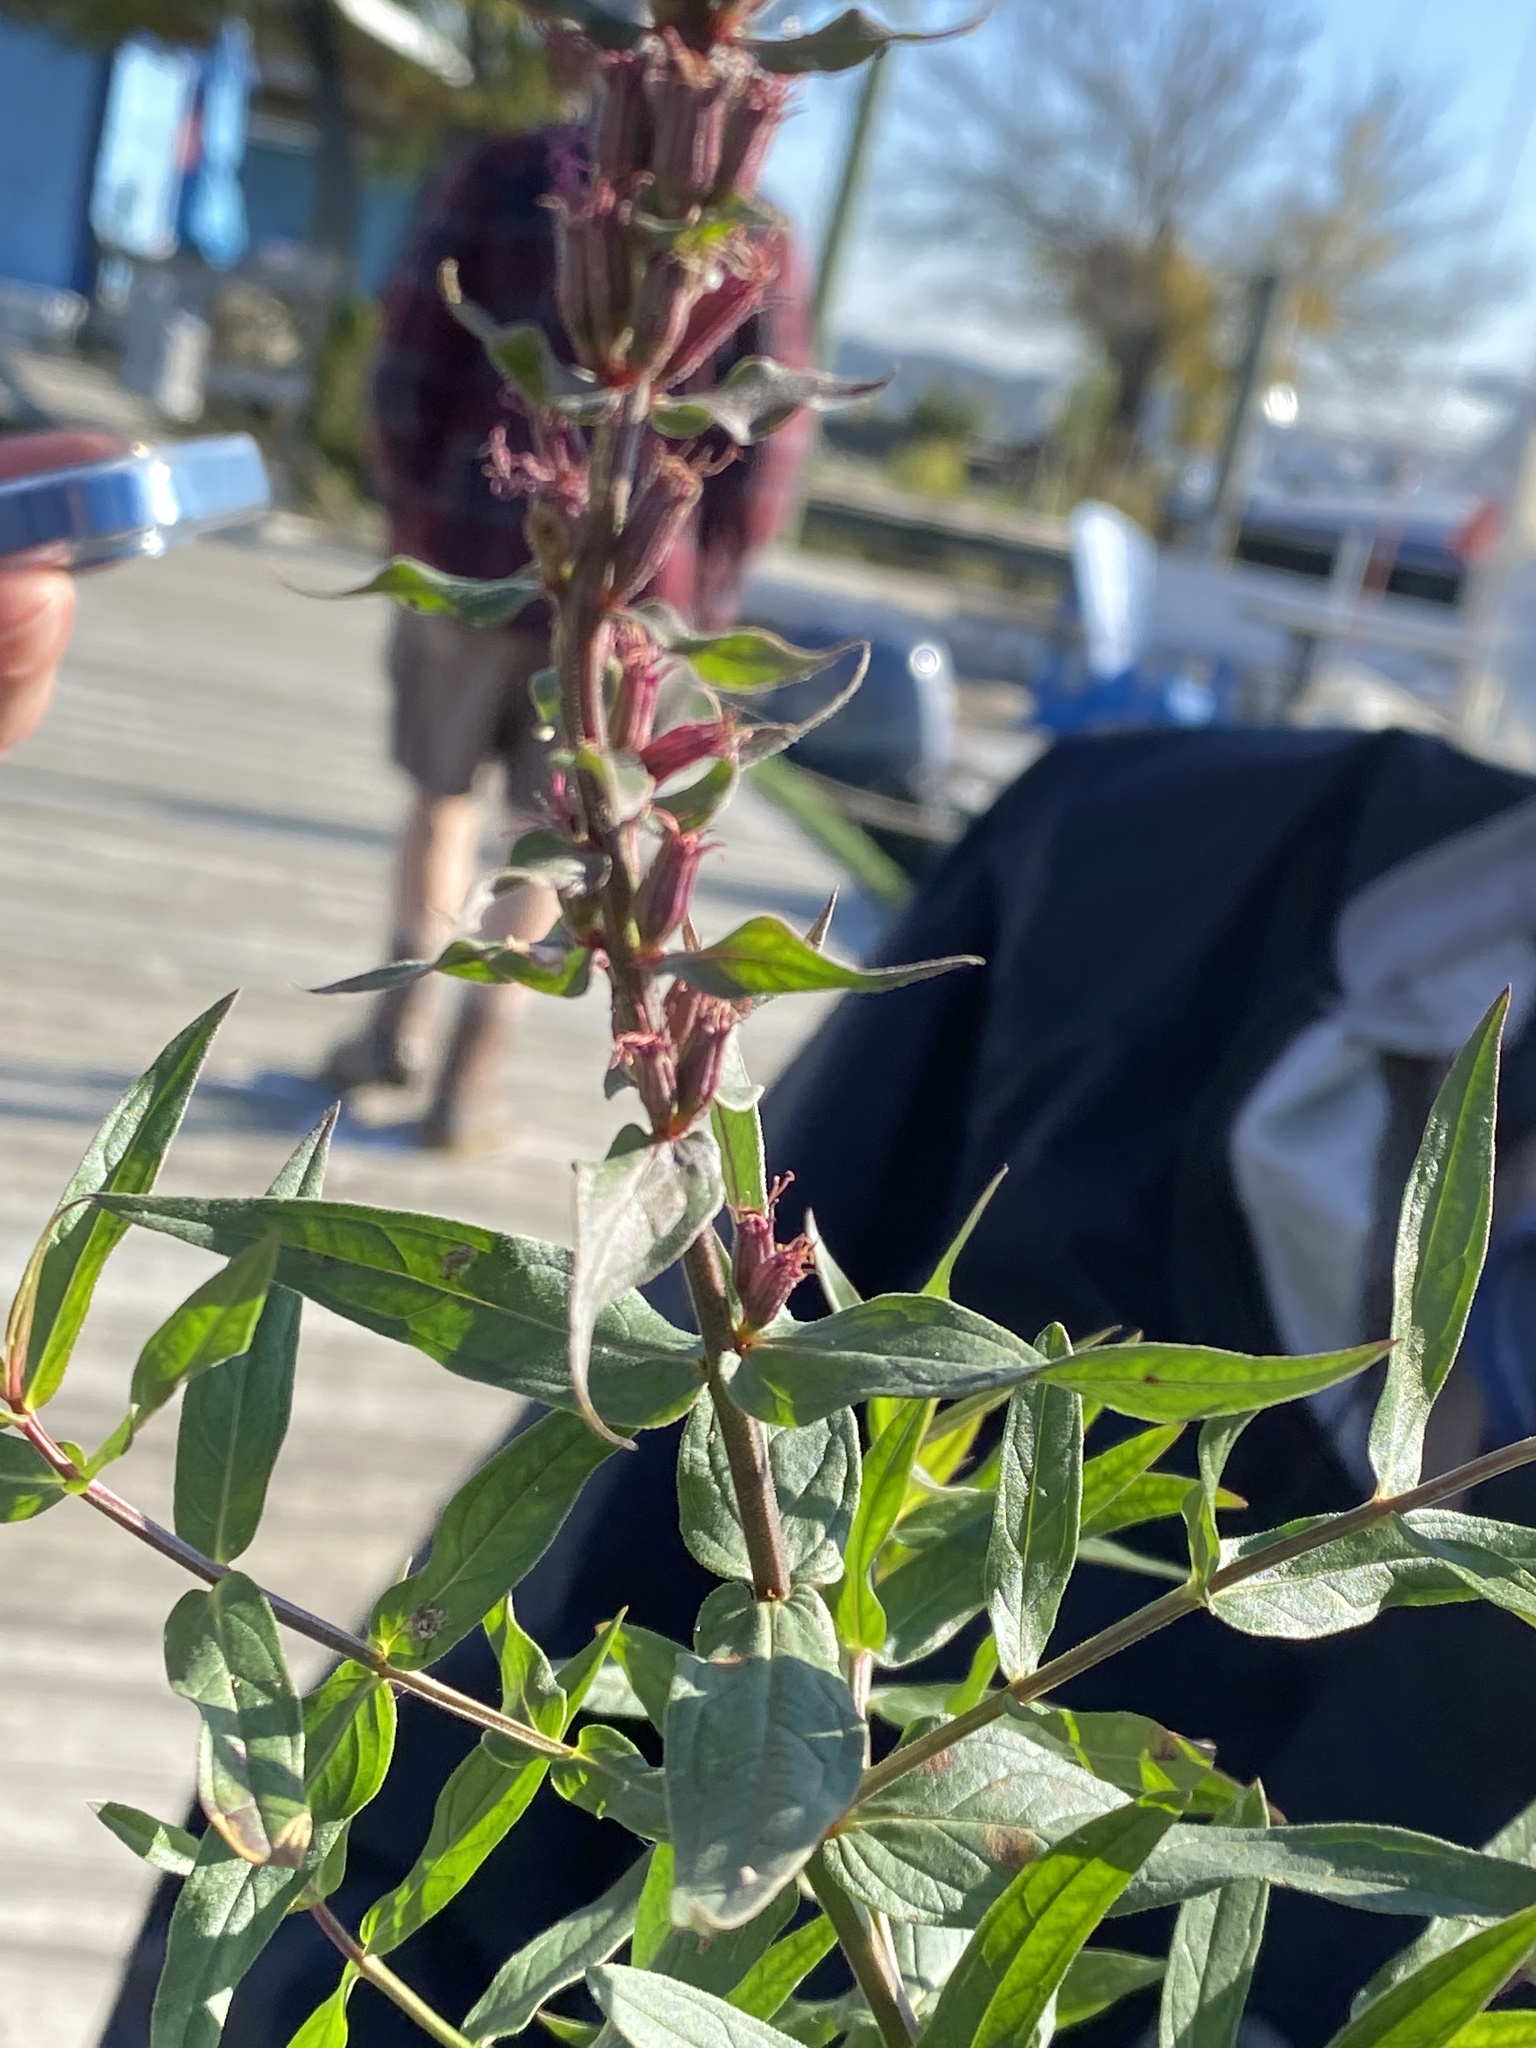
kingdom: Plantae
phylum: Tracheophyta
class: Magnoliopsida
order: Myrtales
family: Lythraceae
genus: Lythrum
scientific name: Lythrum salicaria
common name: Purple loosestrife
